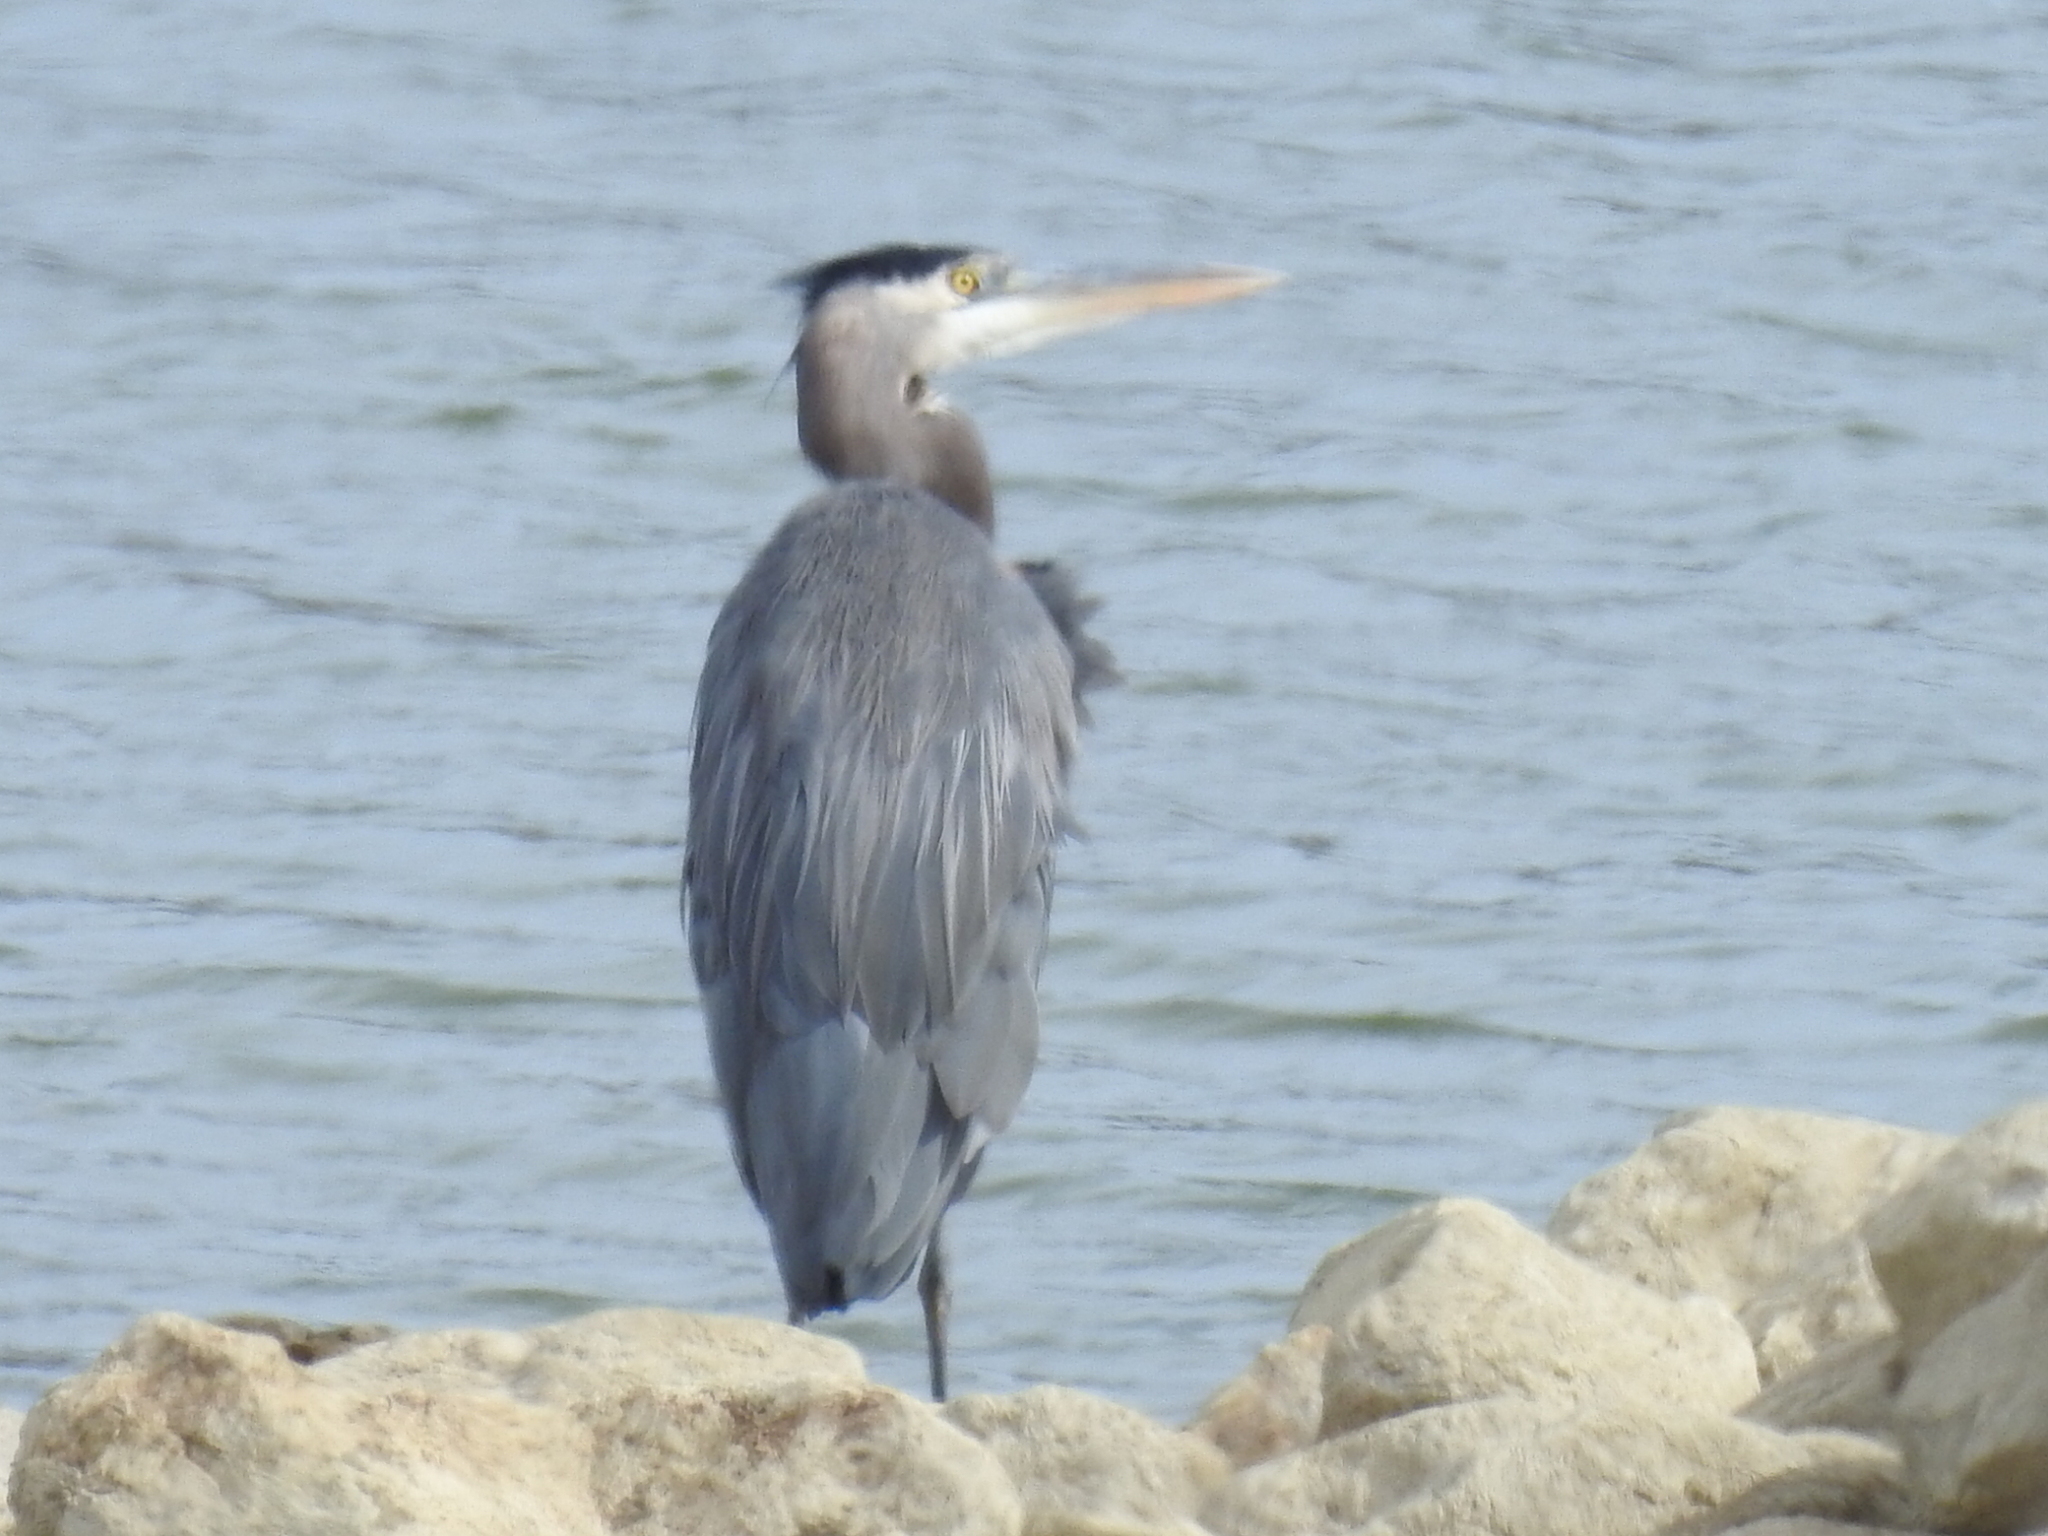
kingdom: Animalia
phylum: Chordata
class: Aves
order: Pelecaniformes
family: Ardeidae
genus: Ardea
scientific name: Ardea herodias
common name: Great blue heron
